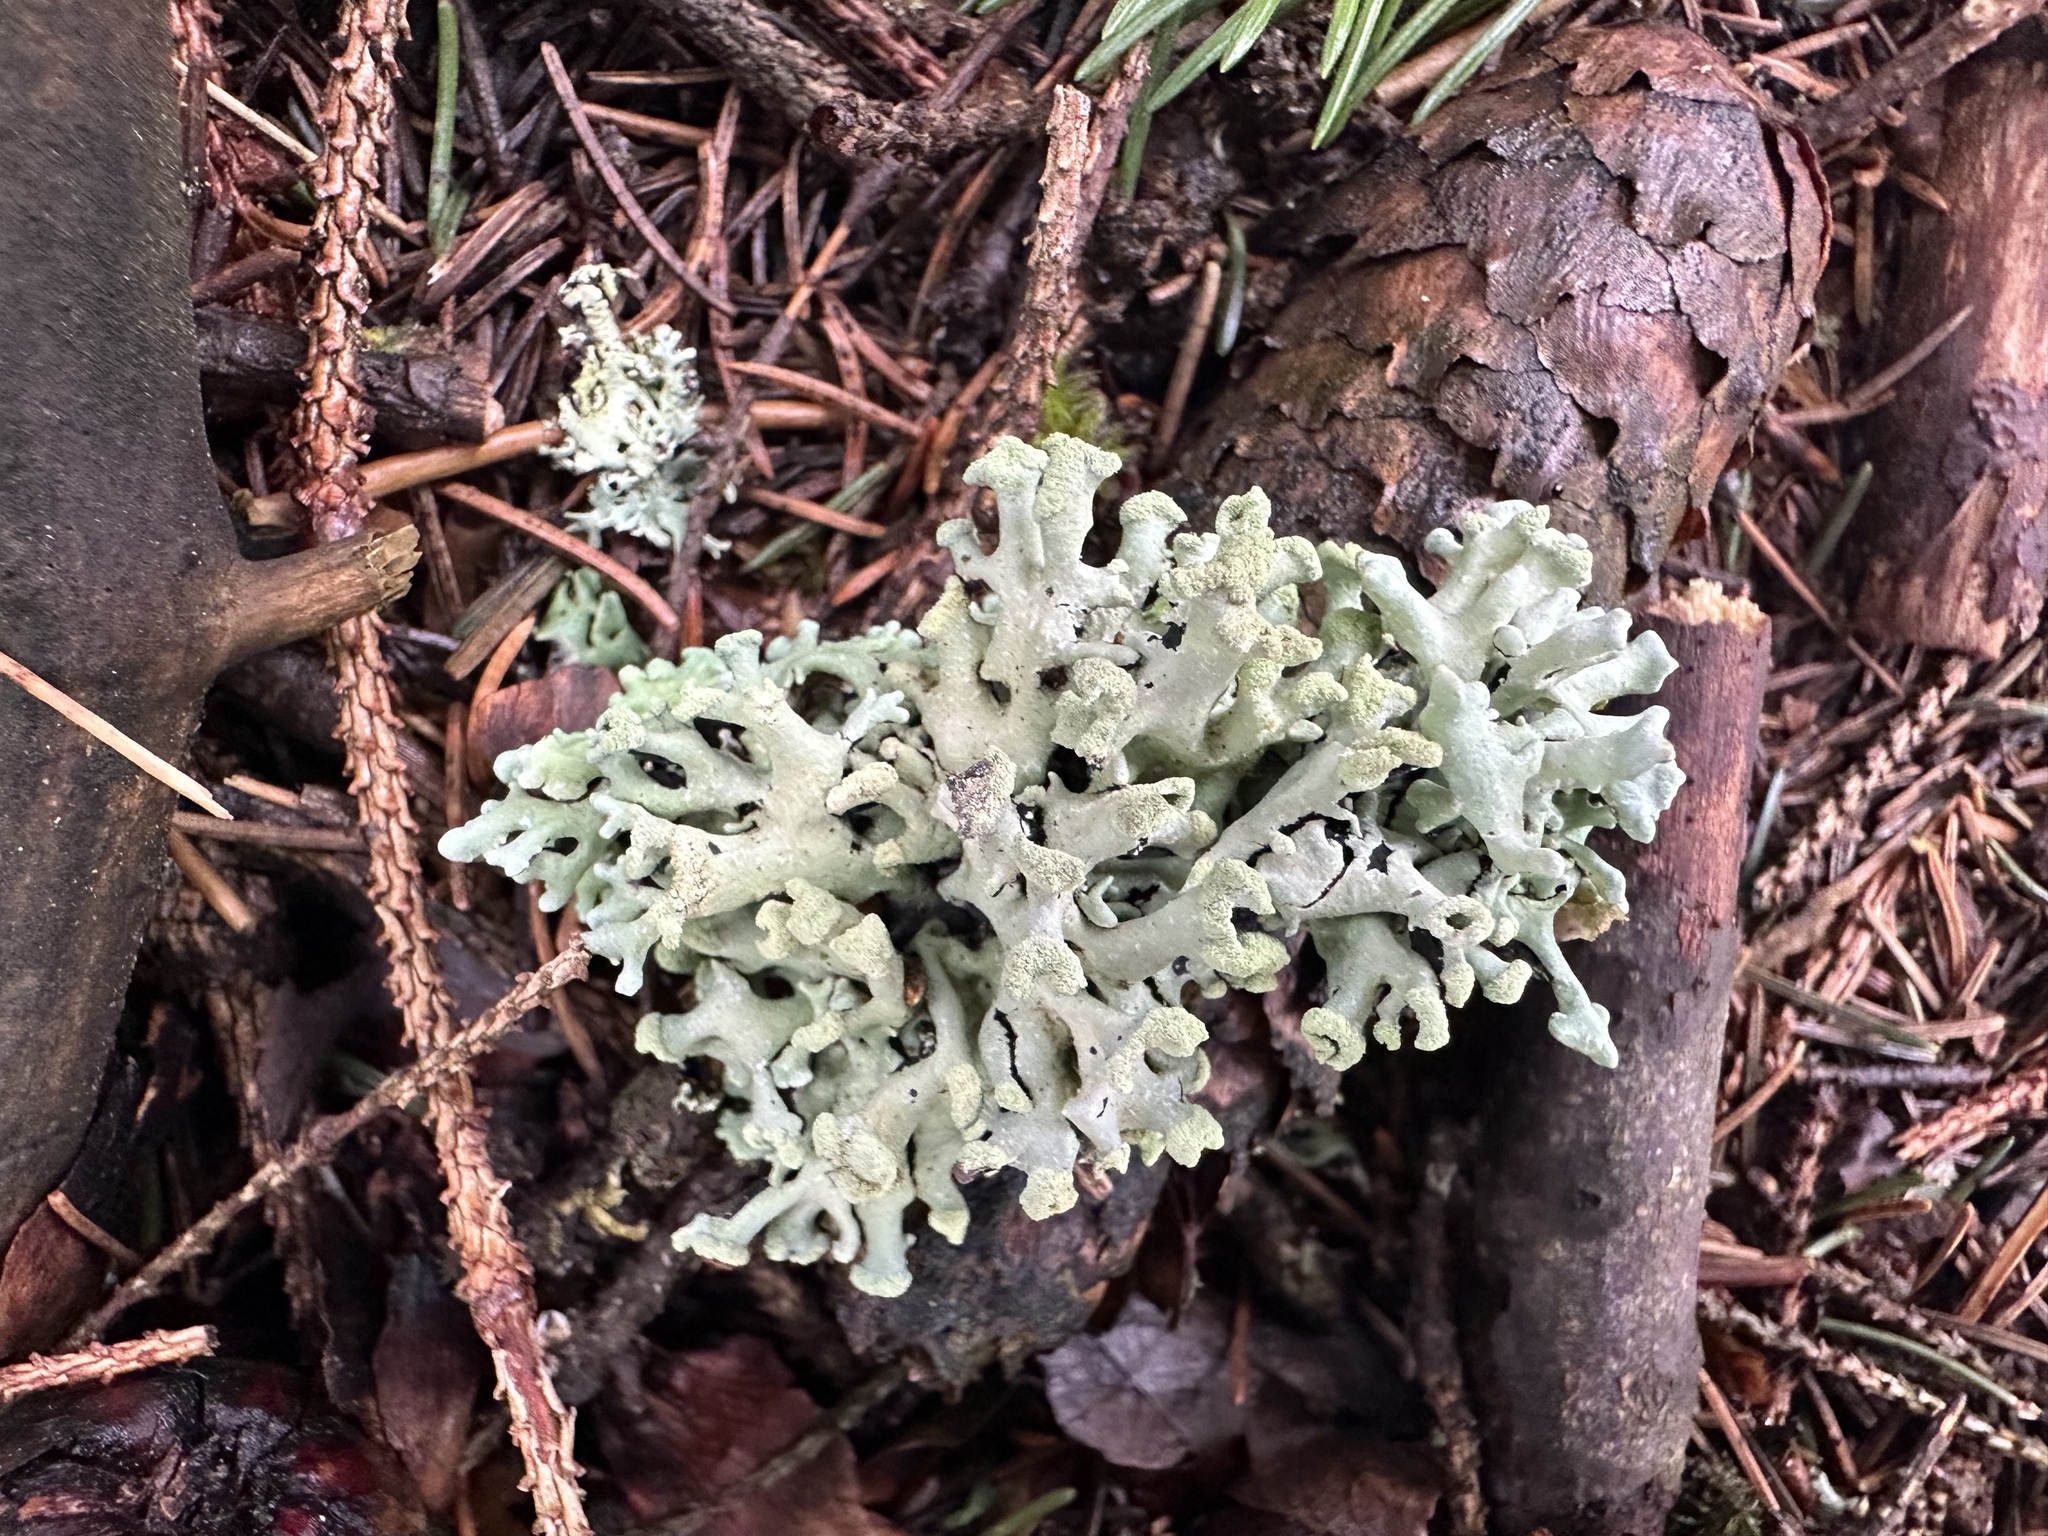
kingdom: Fungi
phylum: Ascomycota
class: Lecanoromycetes
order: Lecanorales
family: Parmeliaceae
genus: Hypogymnia
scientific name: Hypogymnia tubulosa
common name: Powder-headed tube lichen
